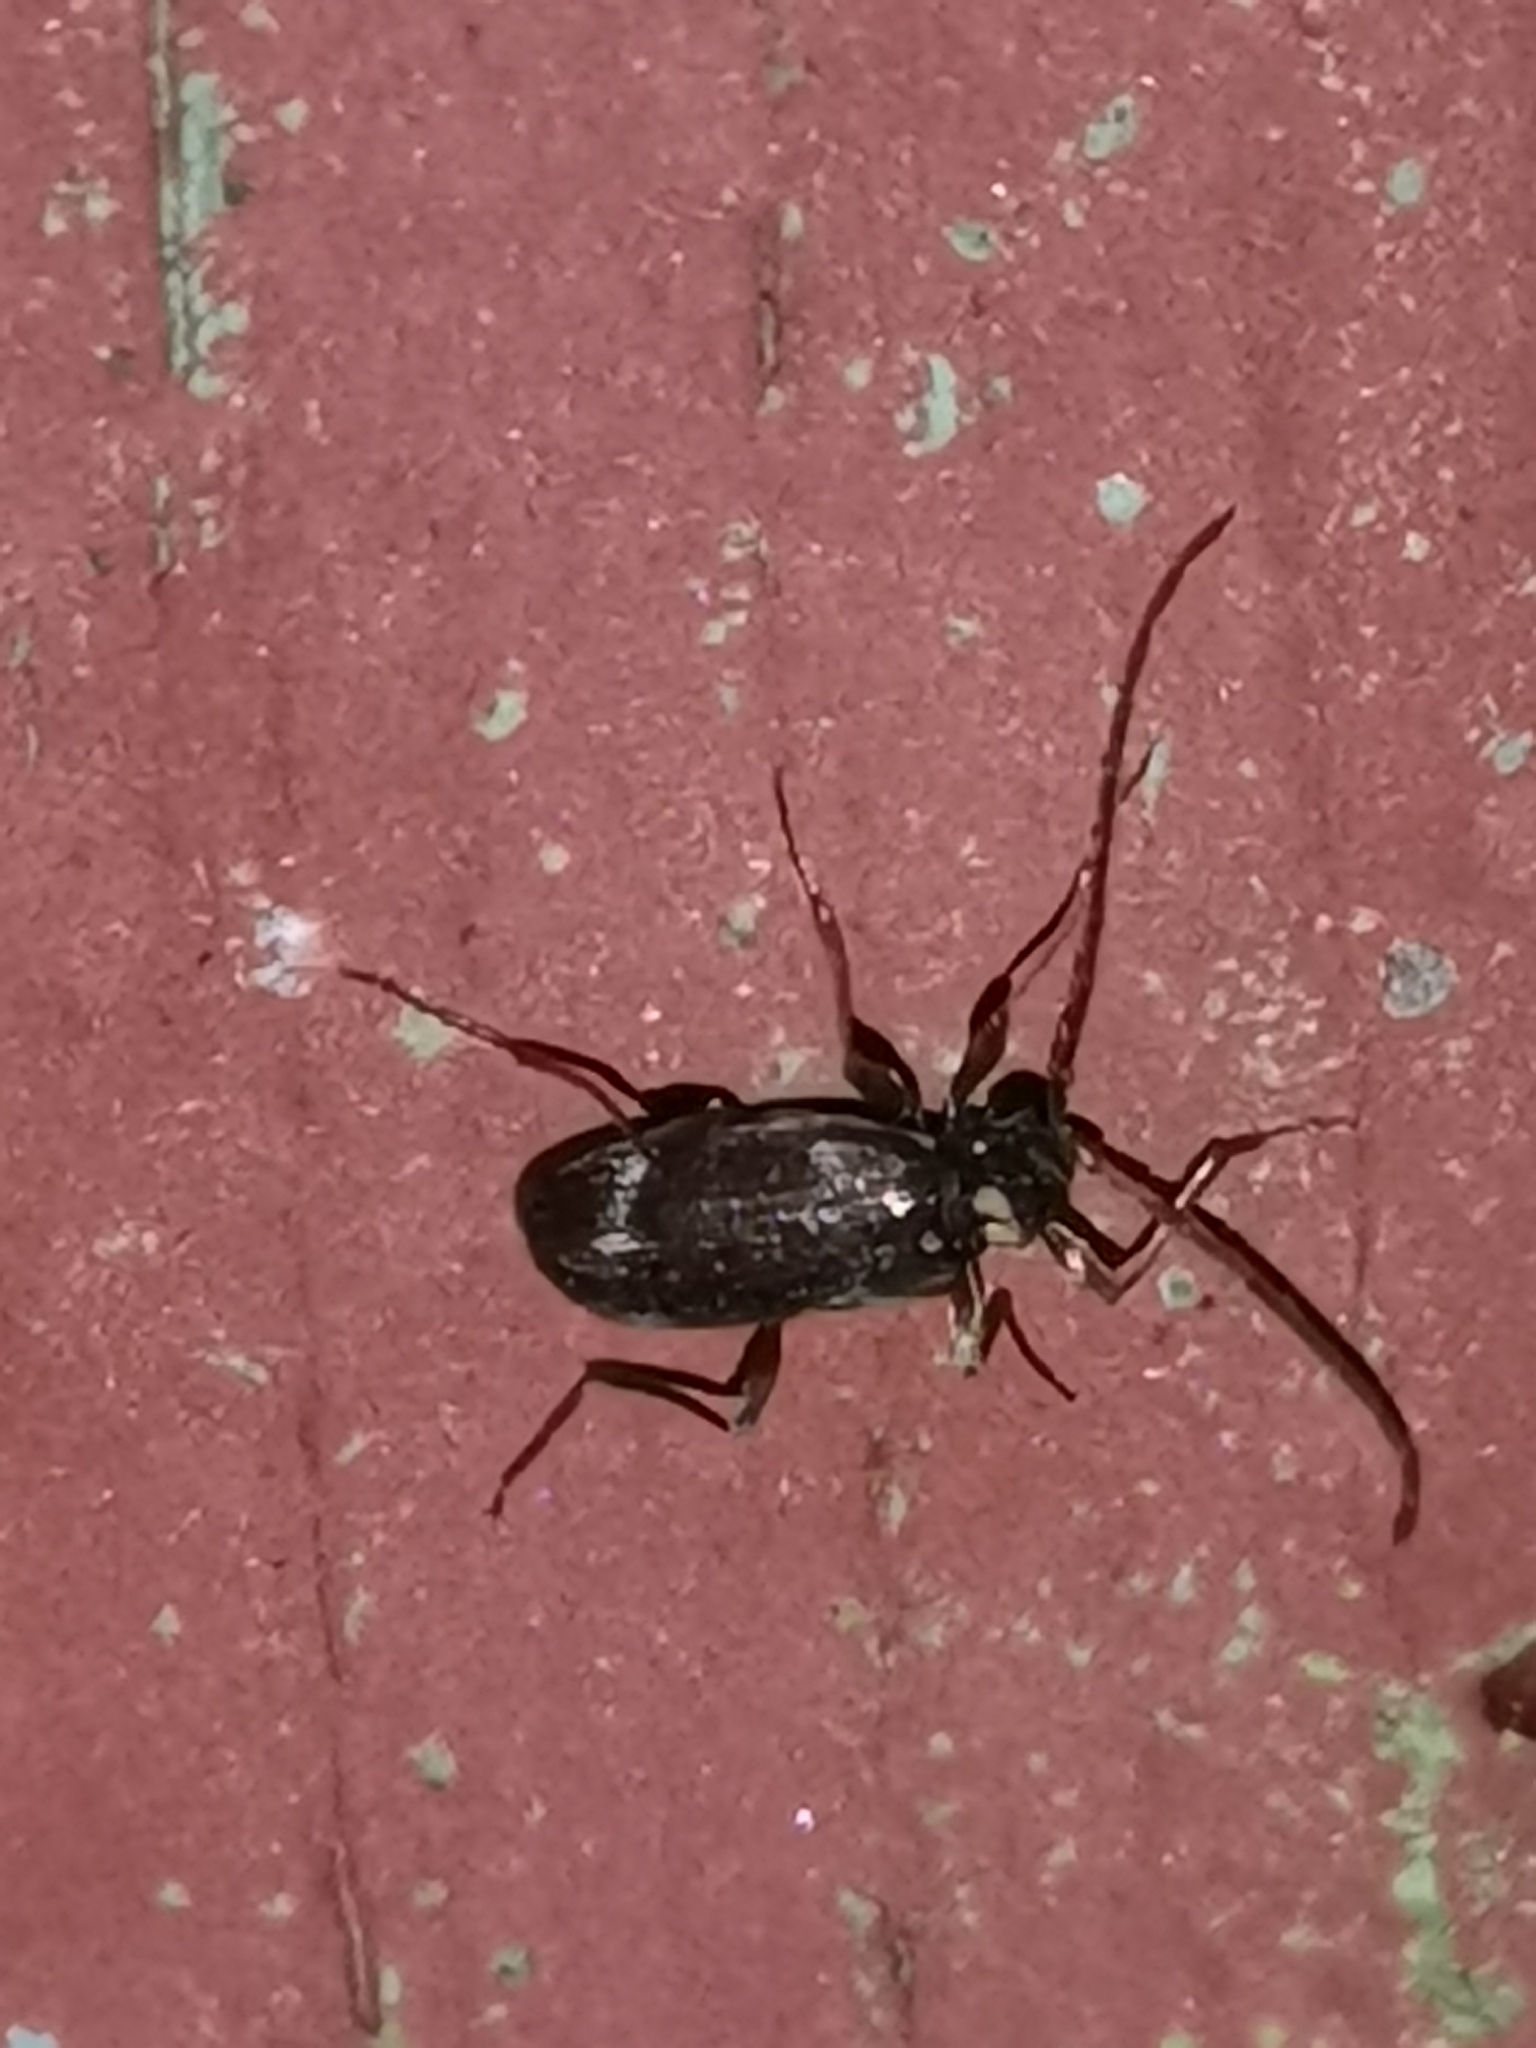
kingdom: Animalia
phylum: Arthropoda
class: Insecta
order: Coleoptera
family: Ptinidae
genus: Ptinus
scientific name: Ptinus raptor
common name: Eastern spider beetle
